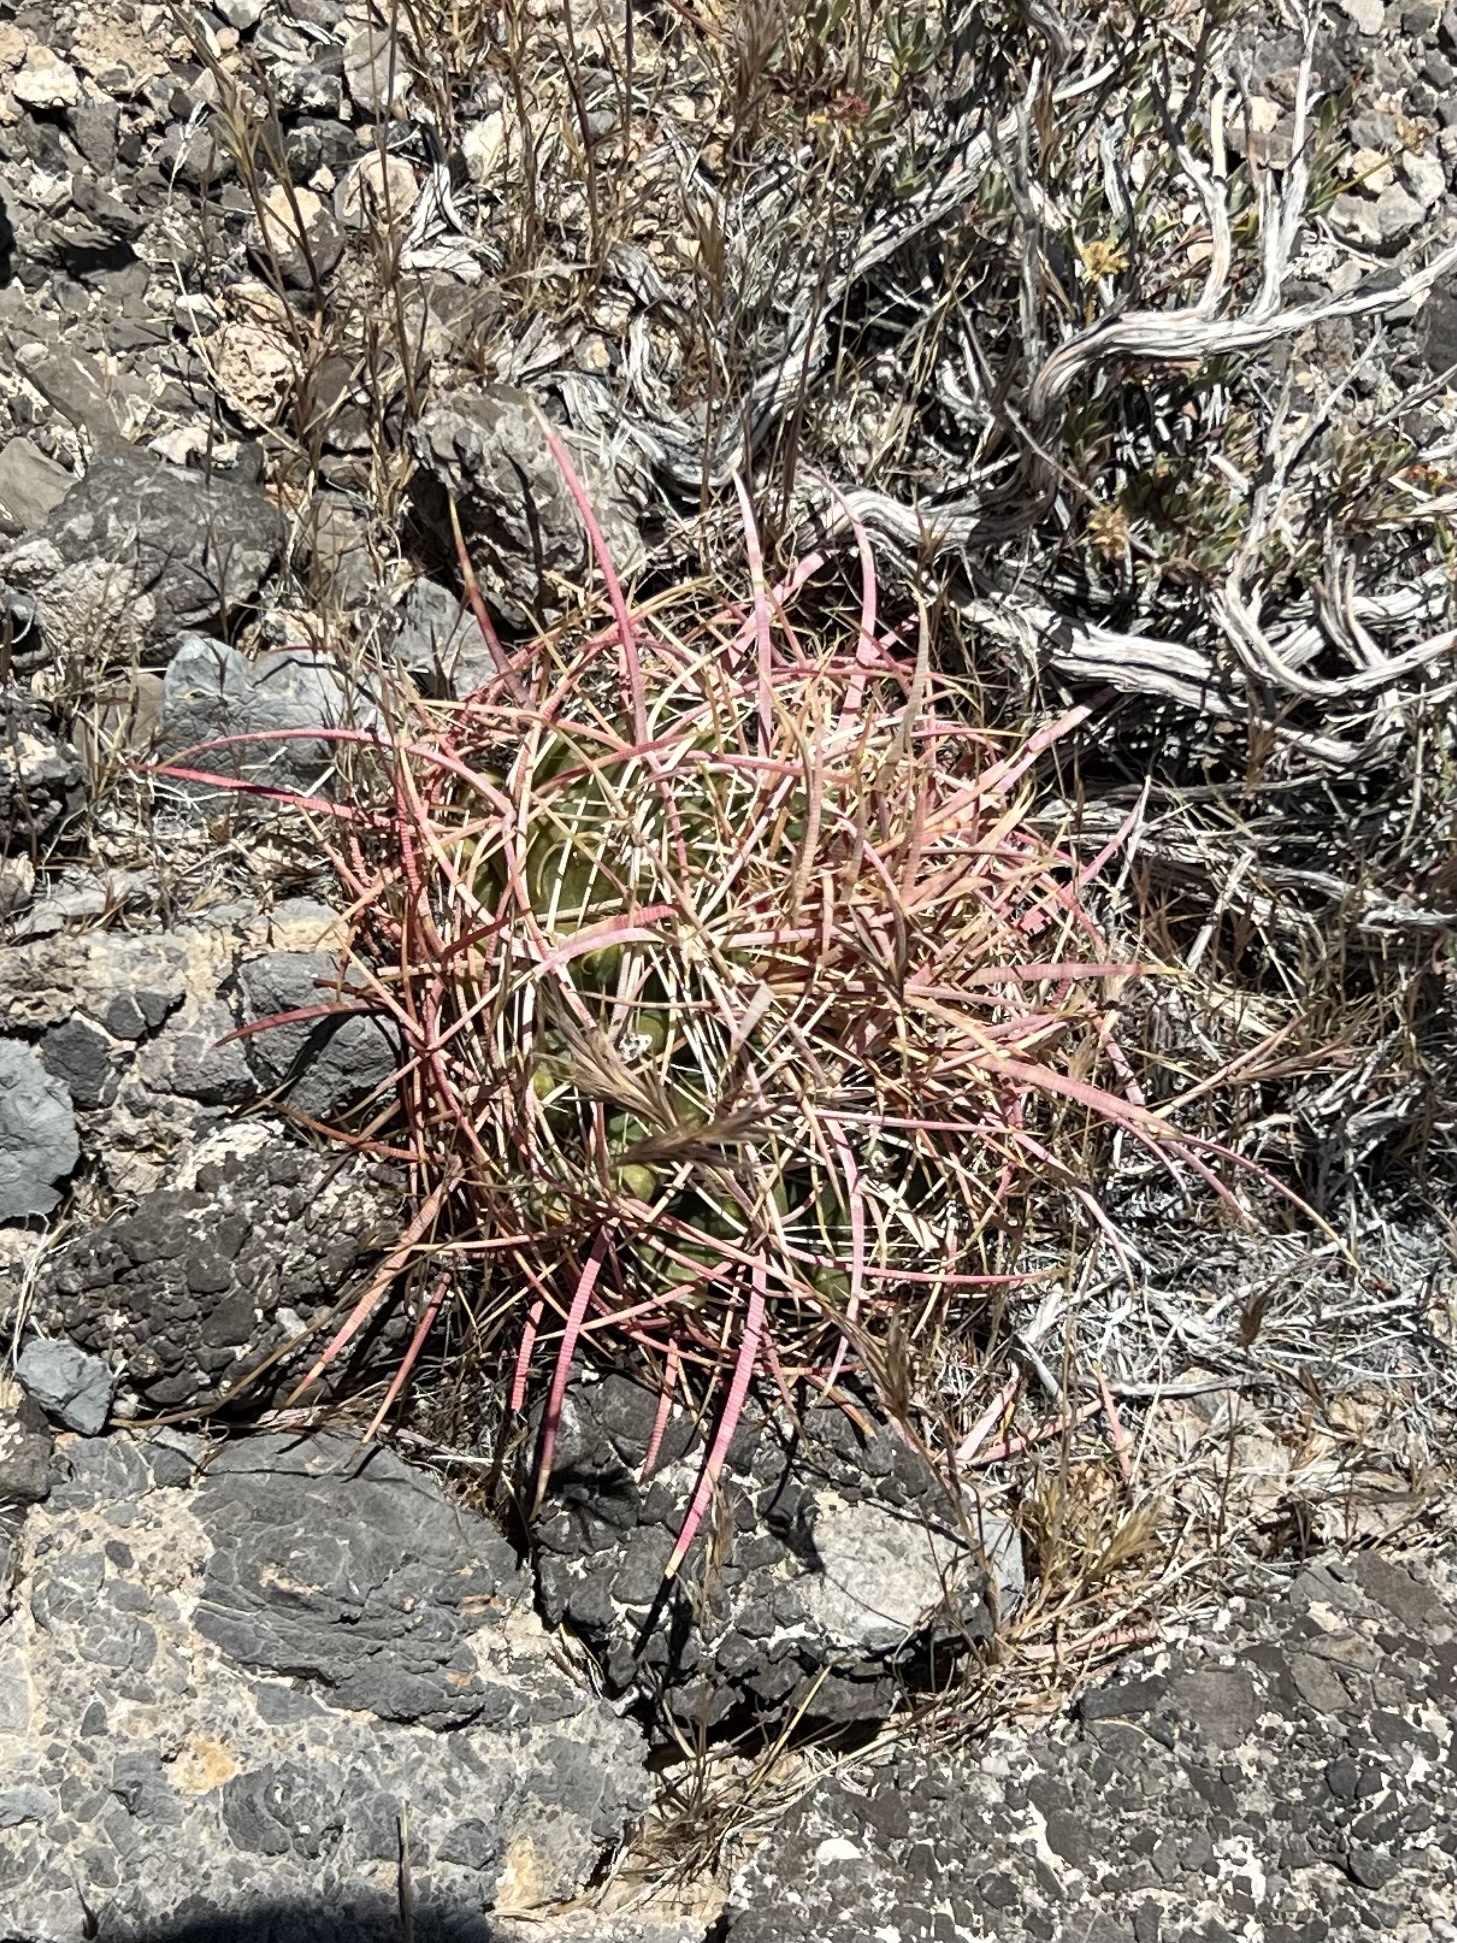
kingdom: Plantae
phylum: Tracheophyta
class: Magnoliopsida
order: Caryophyllales
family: Cactaceae
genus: Ferocactus
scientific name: Ferocactus cylindraceus
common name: California barrel cactus
